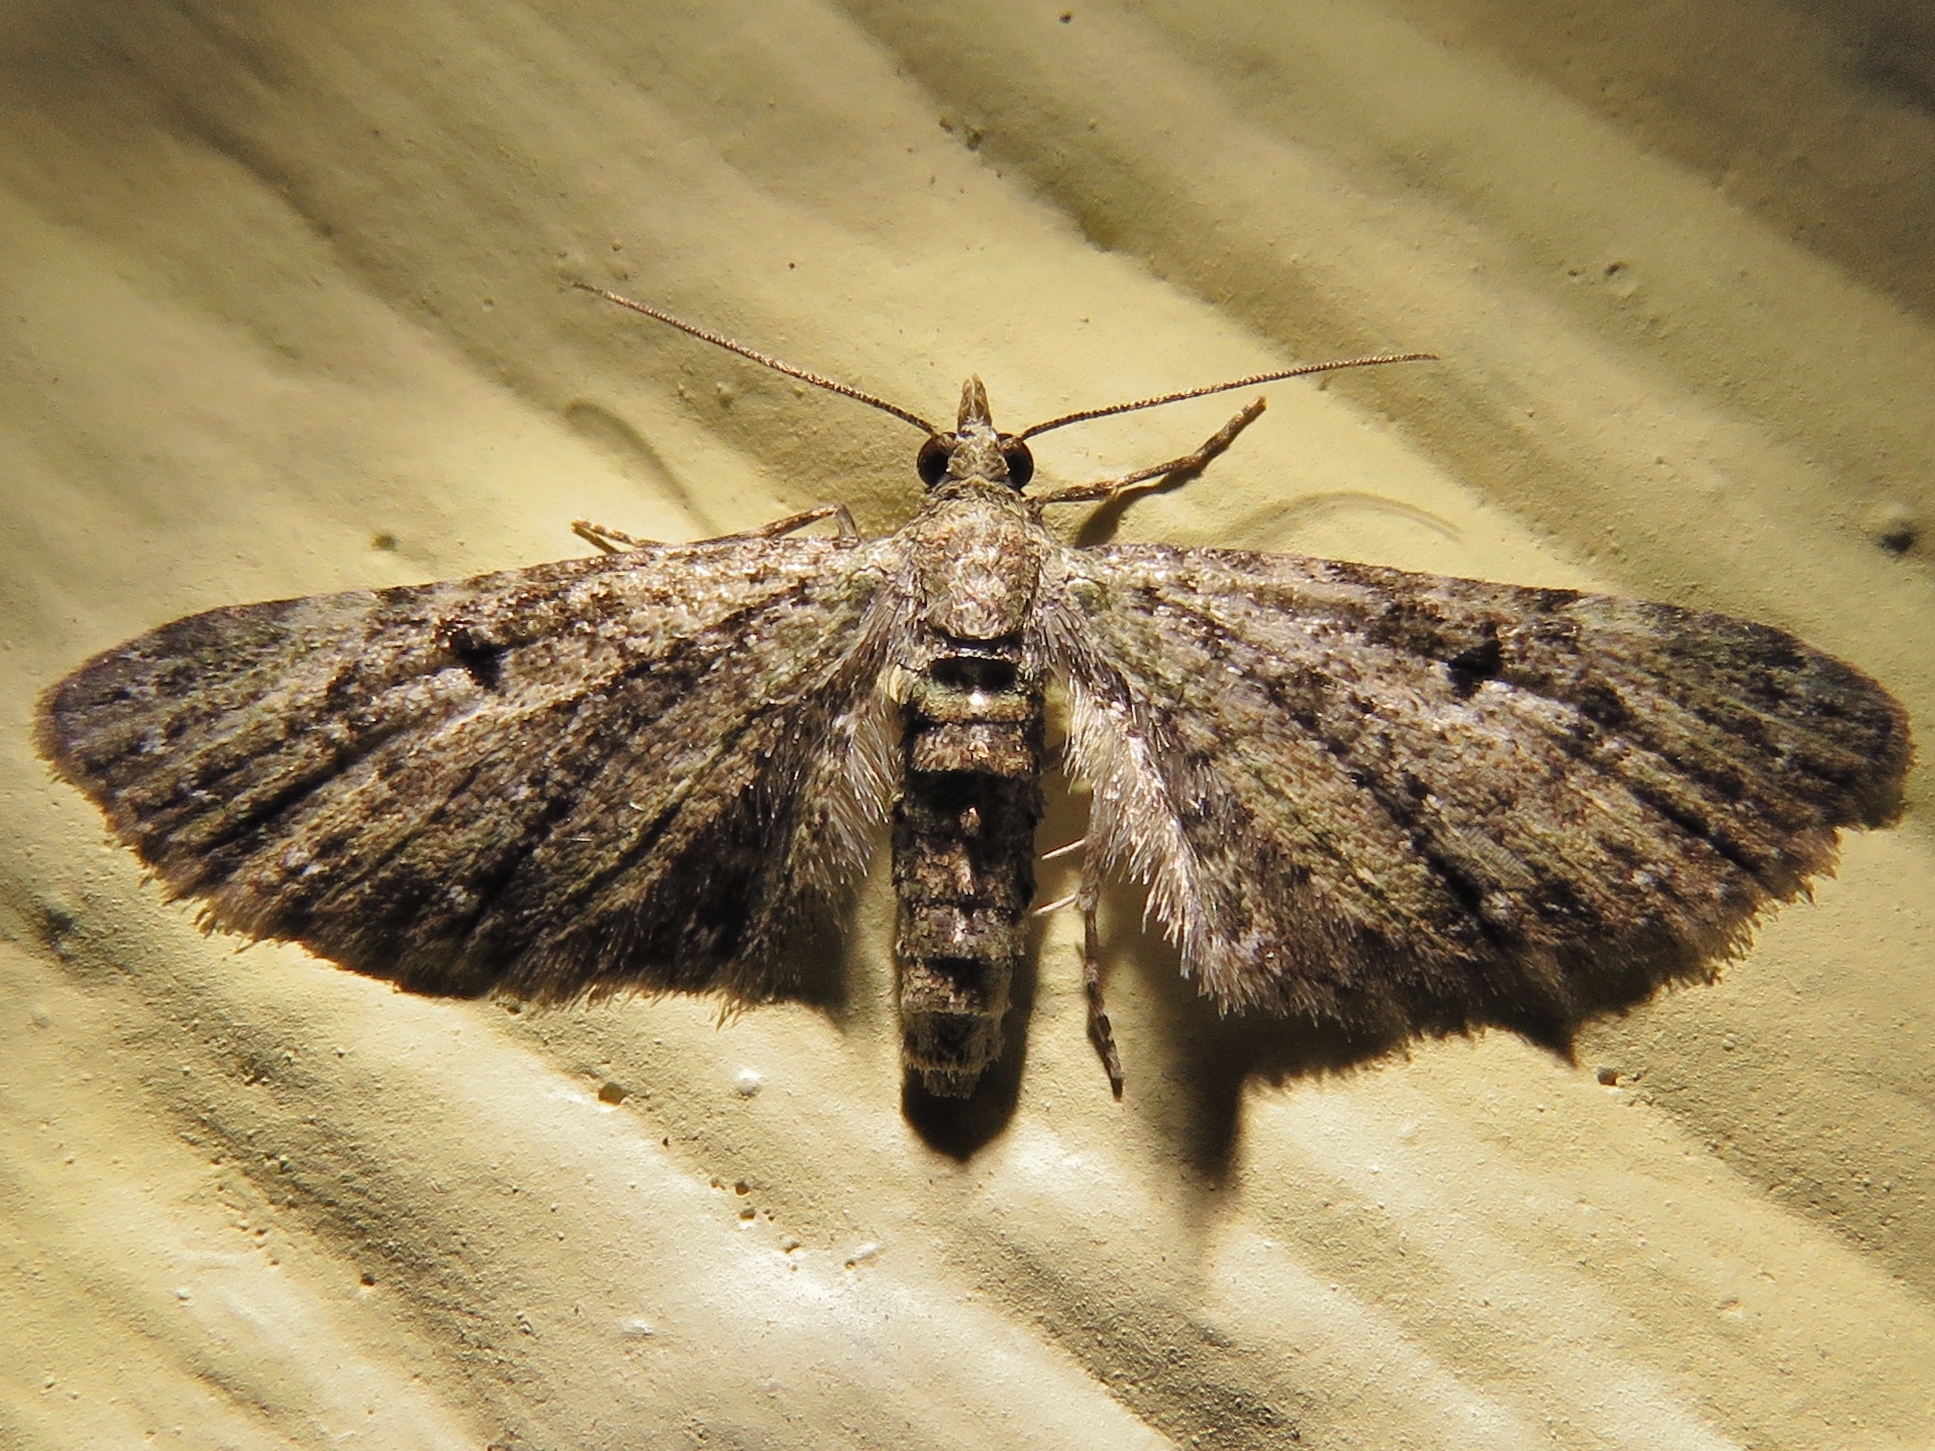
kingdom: Animalia
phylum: Arthropoda
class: Insecta
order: Lepidoptera
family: Geometridae
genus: Eupithecia
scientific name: Eupithecia miserulata
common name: Common eupithecia
